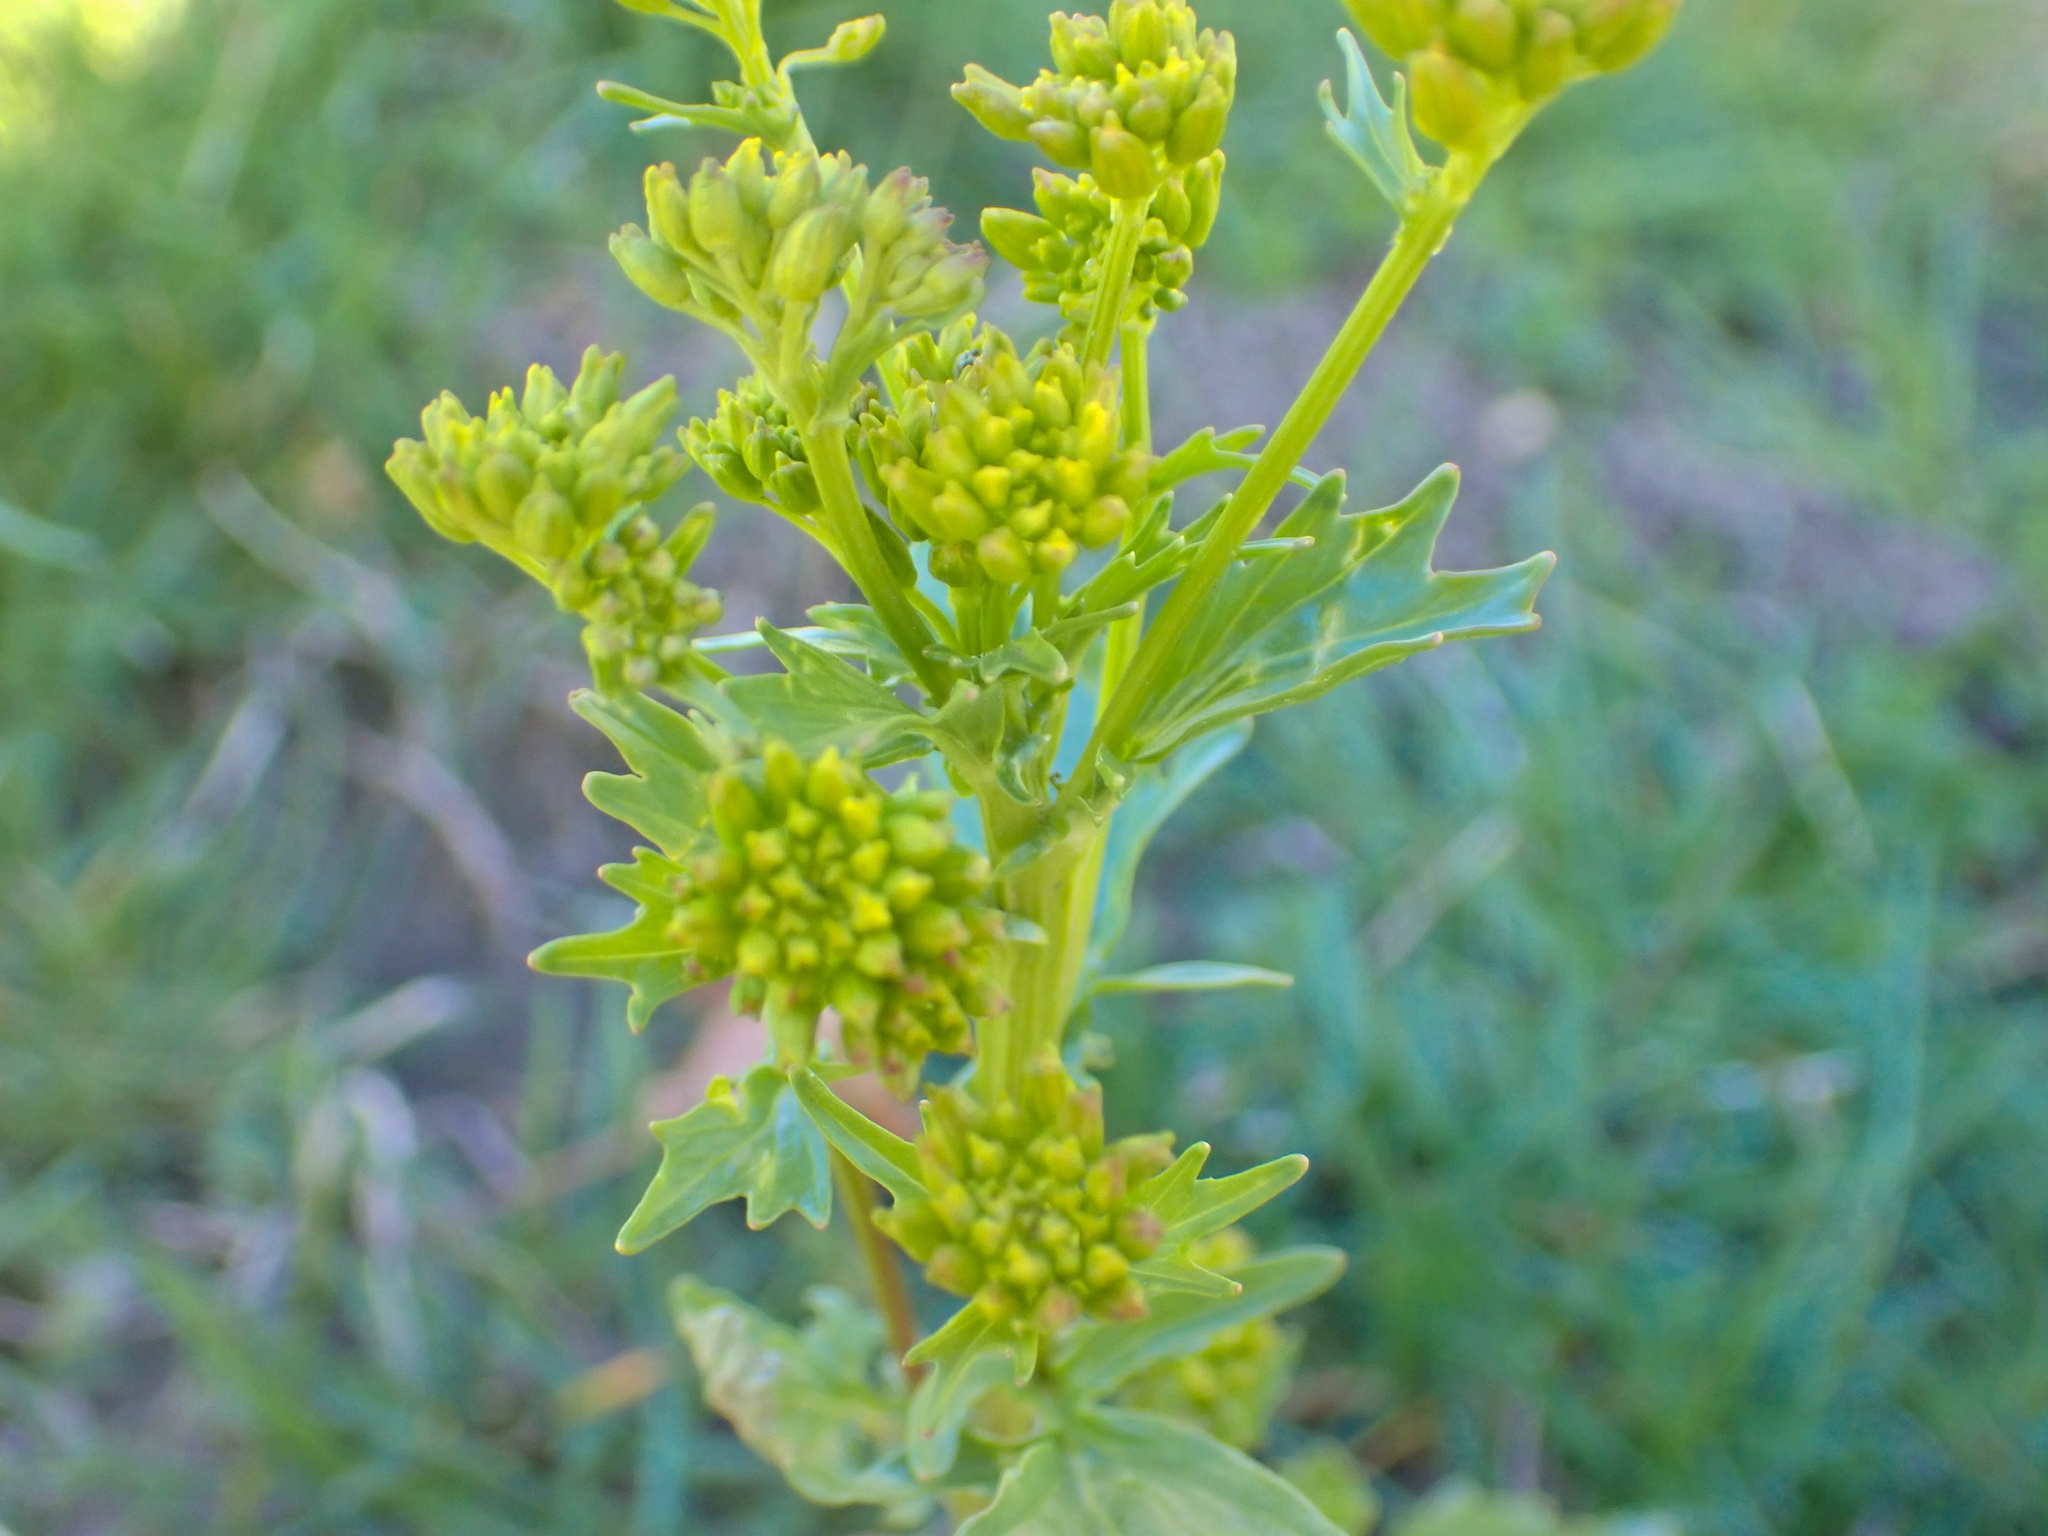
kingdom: Plantae
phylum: Tracheophyta
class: Magnoliopsida
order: Brassicales
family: Brassicaceae
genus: Barbarea
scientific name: Barbarea vulgaris
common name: Cressy-greens
